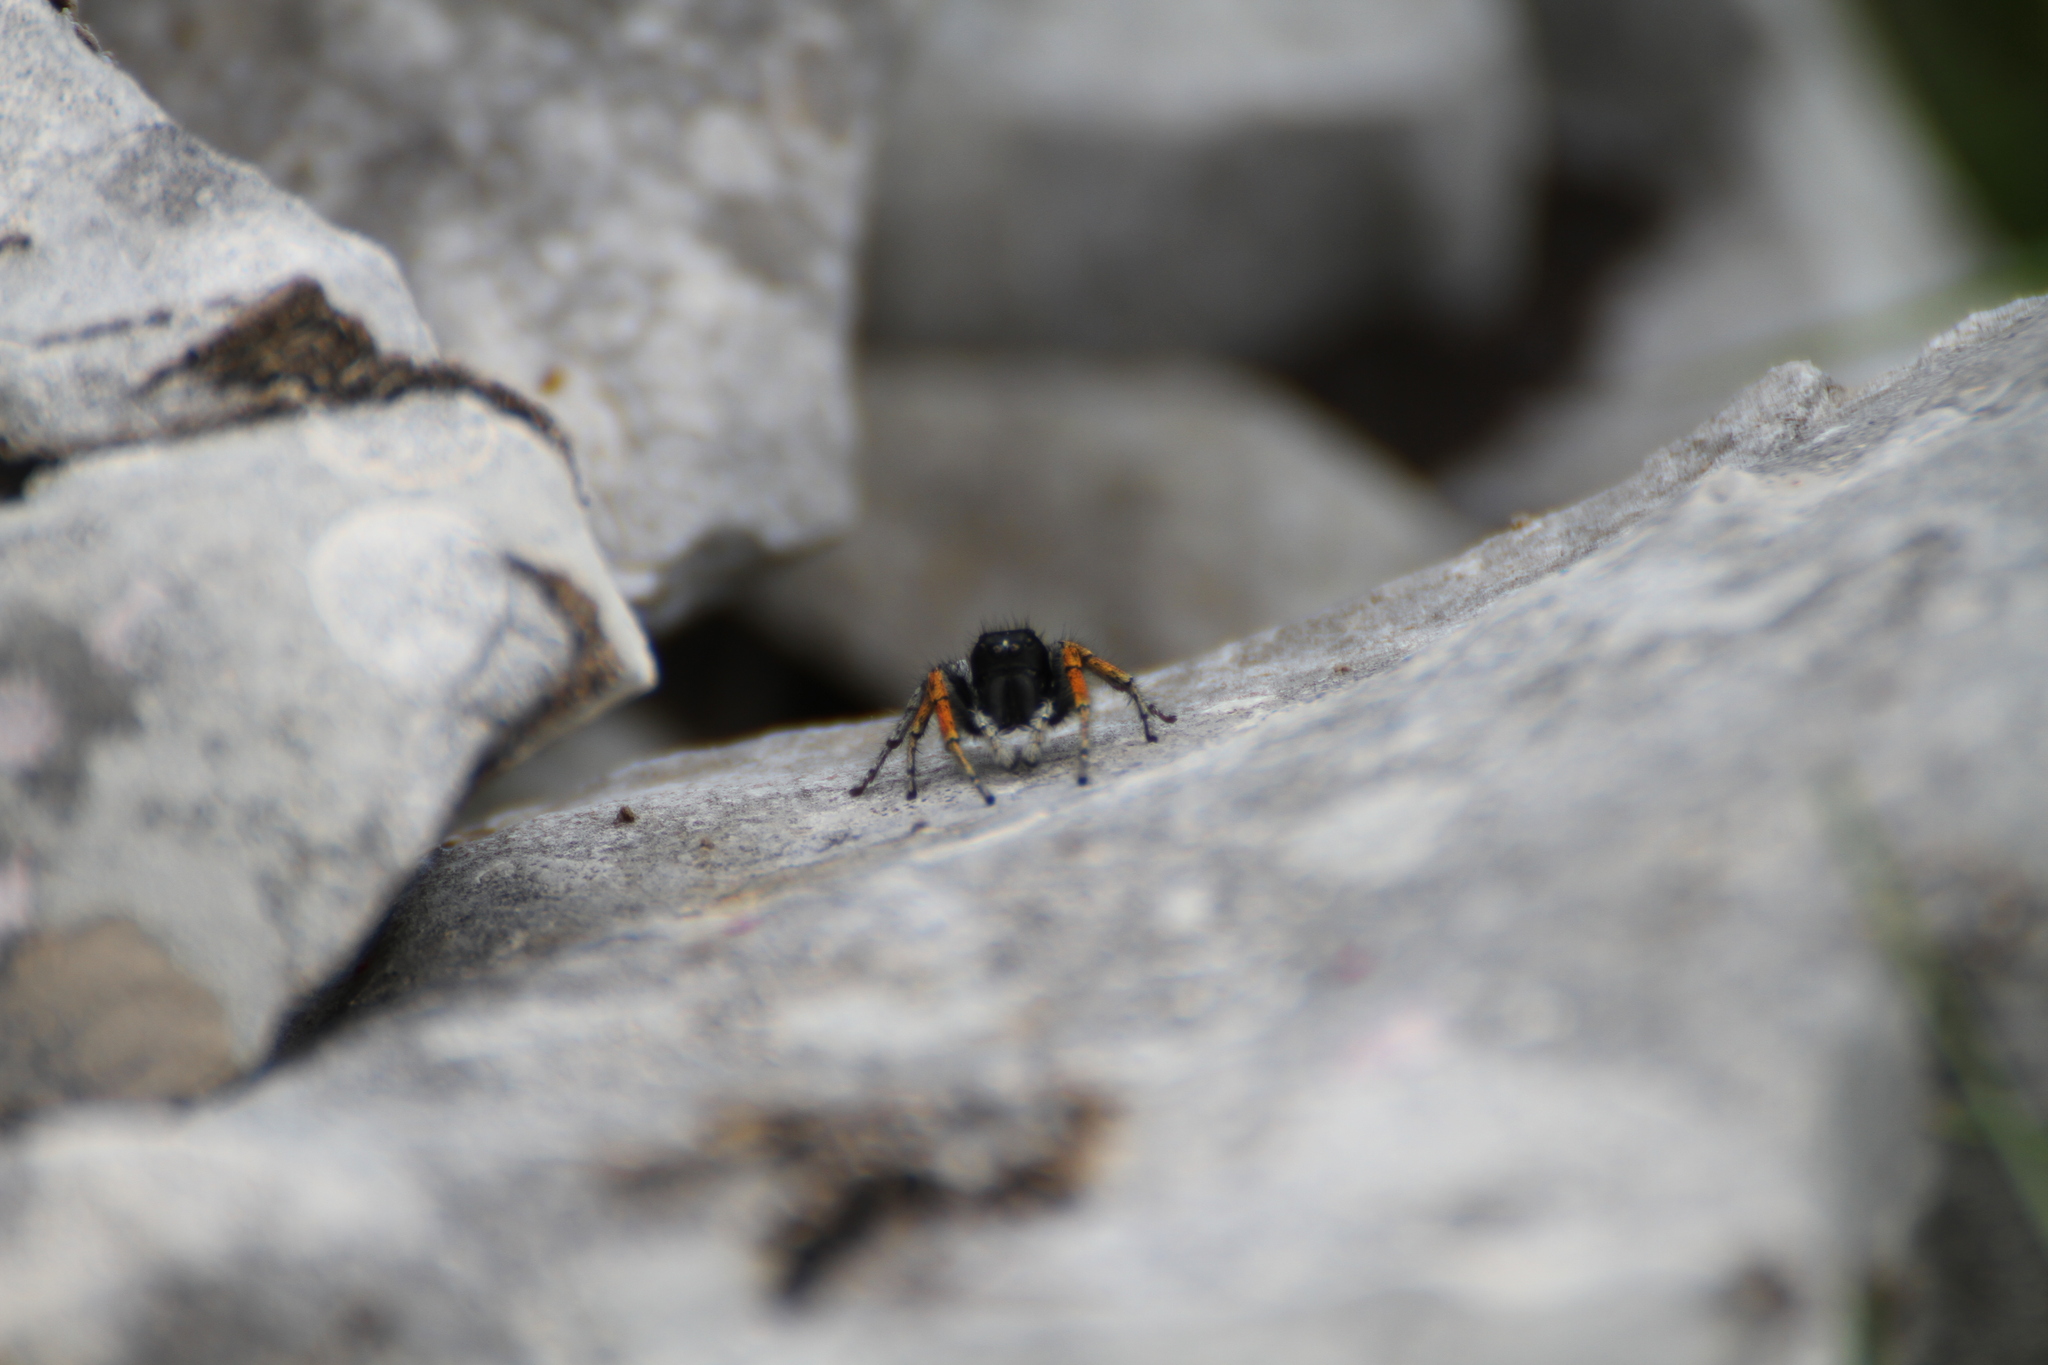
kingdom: Animalia
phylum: Arthropoda
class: Arachnida
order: Araneae
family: Salticidae
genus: Philaeus
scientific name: Philaeus chrysops
